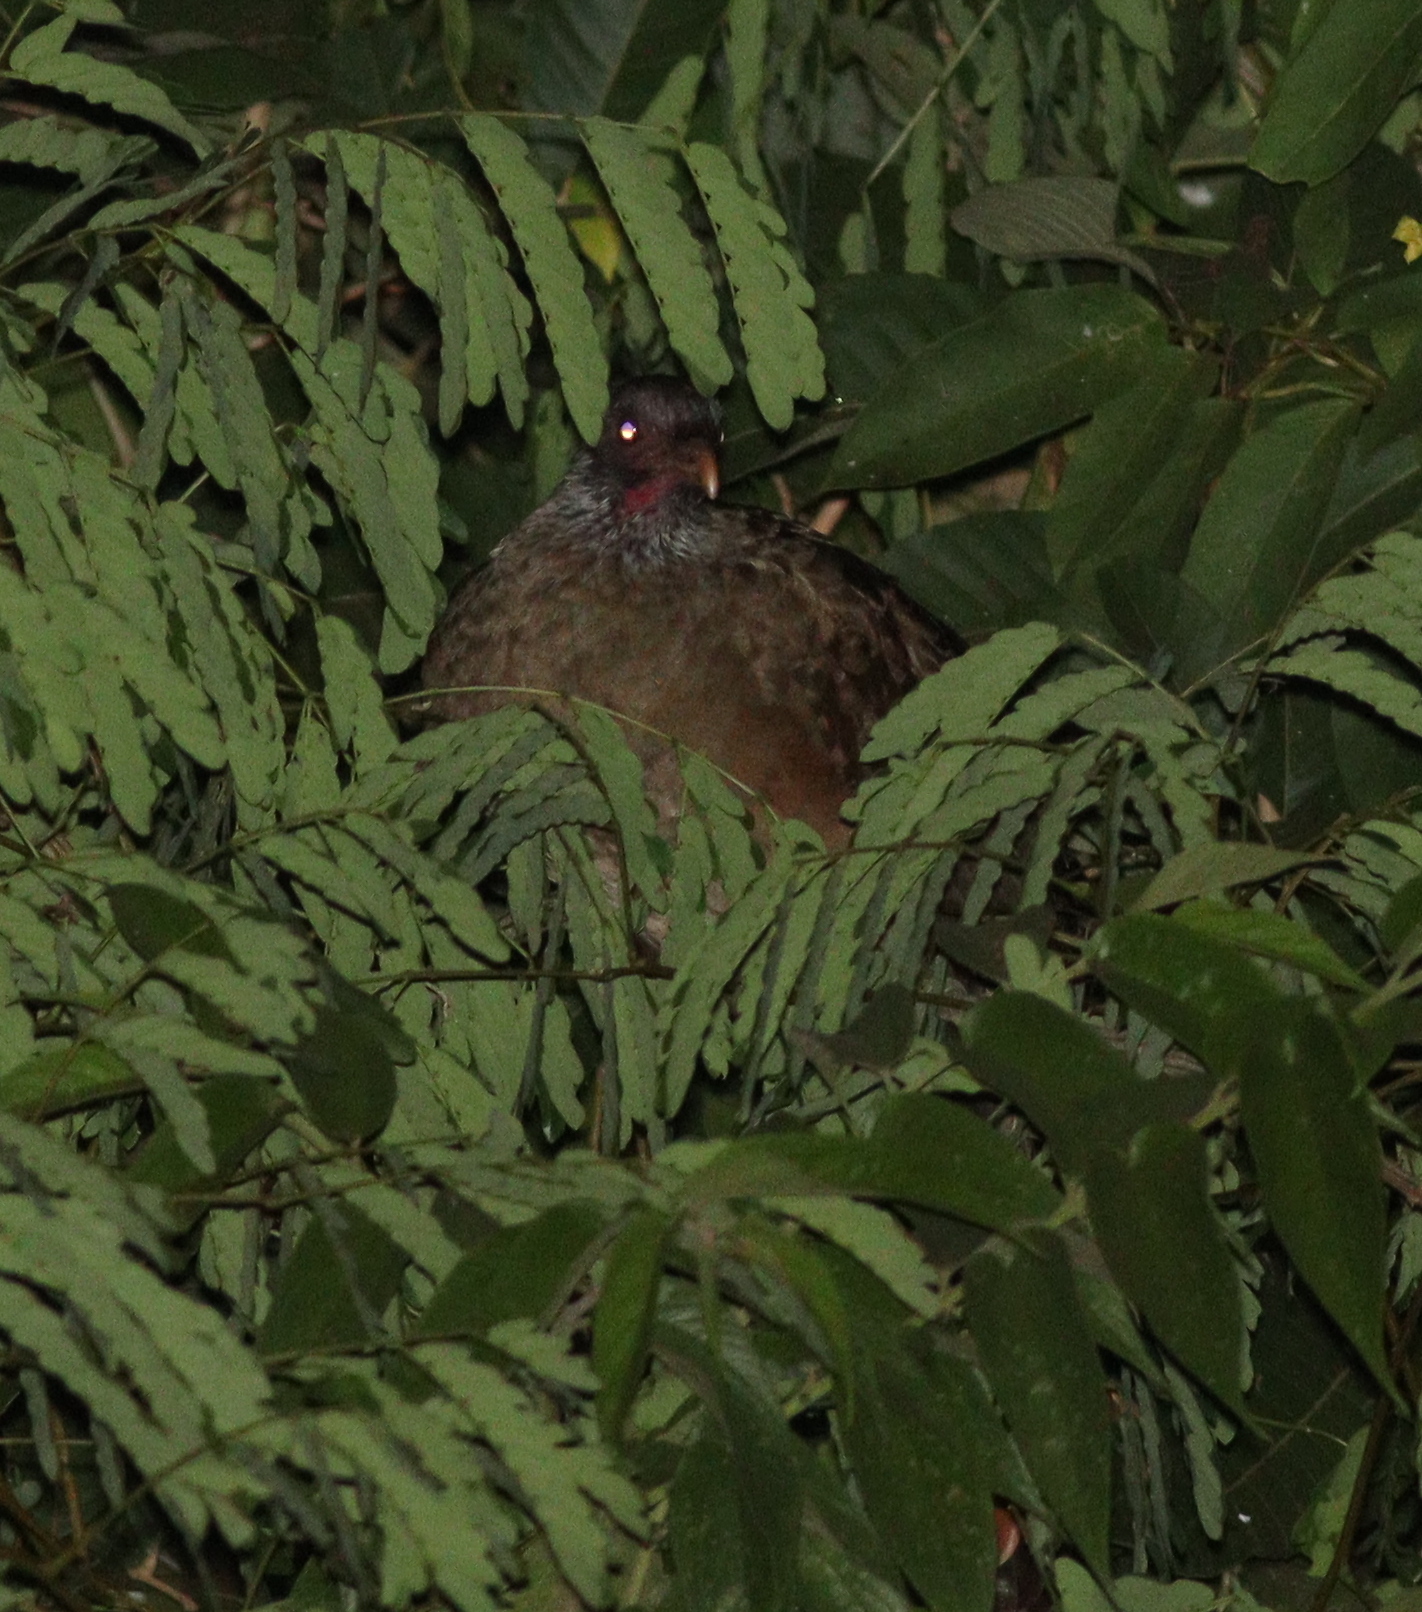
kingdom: Animalia
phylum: Chordata
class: Aves
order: Galliformes
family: Cracidae
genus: Ortalis
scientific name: Ortalis canicollis
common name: Chaco chachalaca
